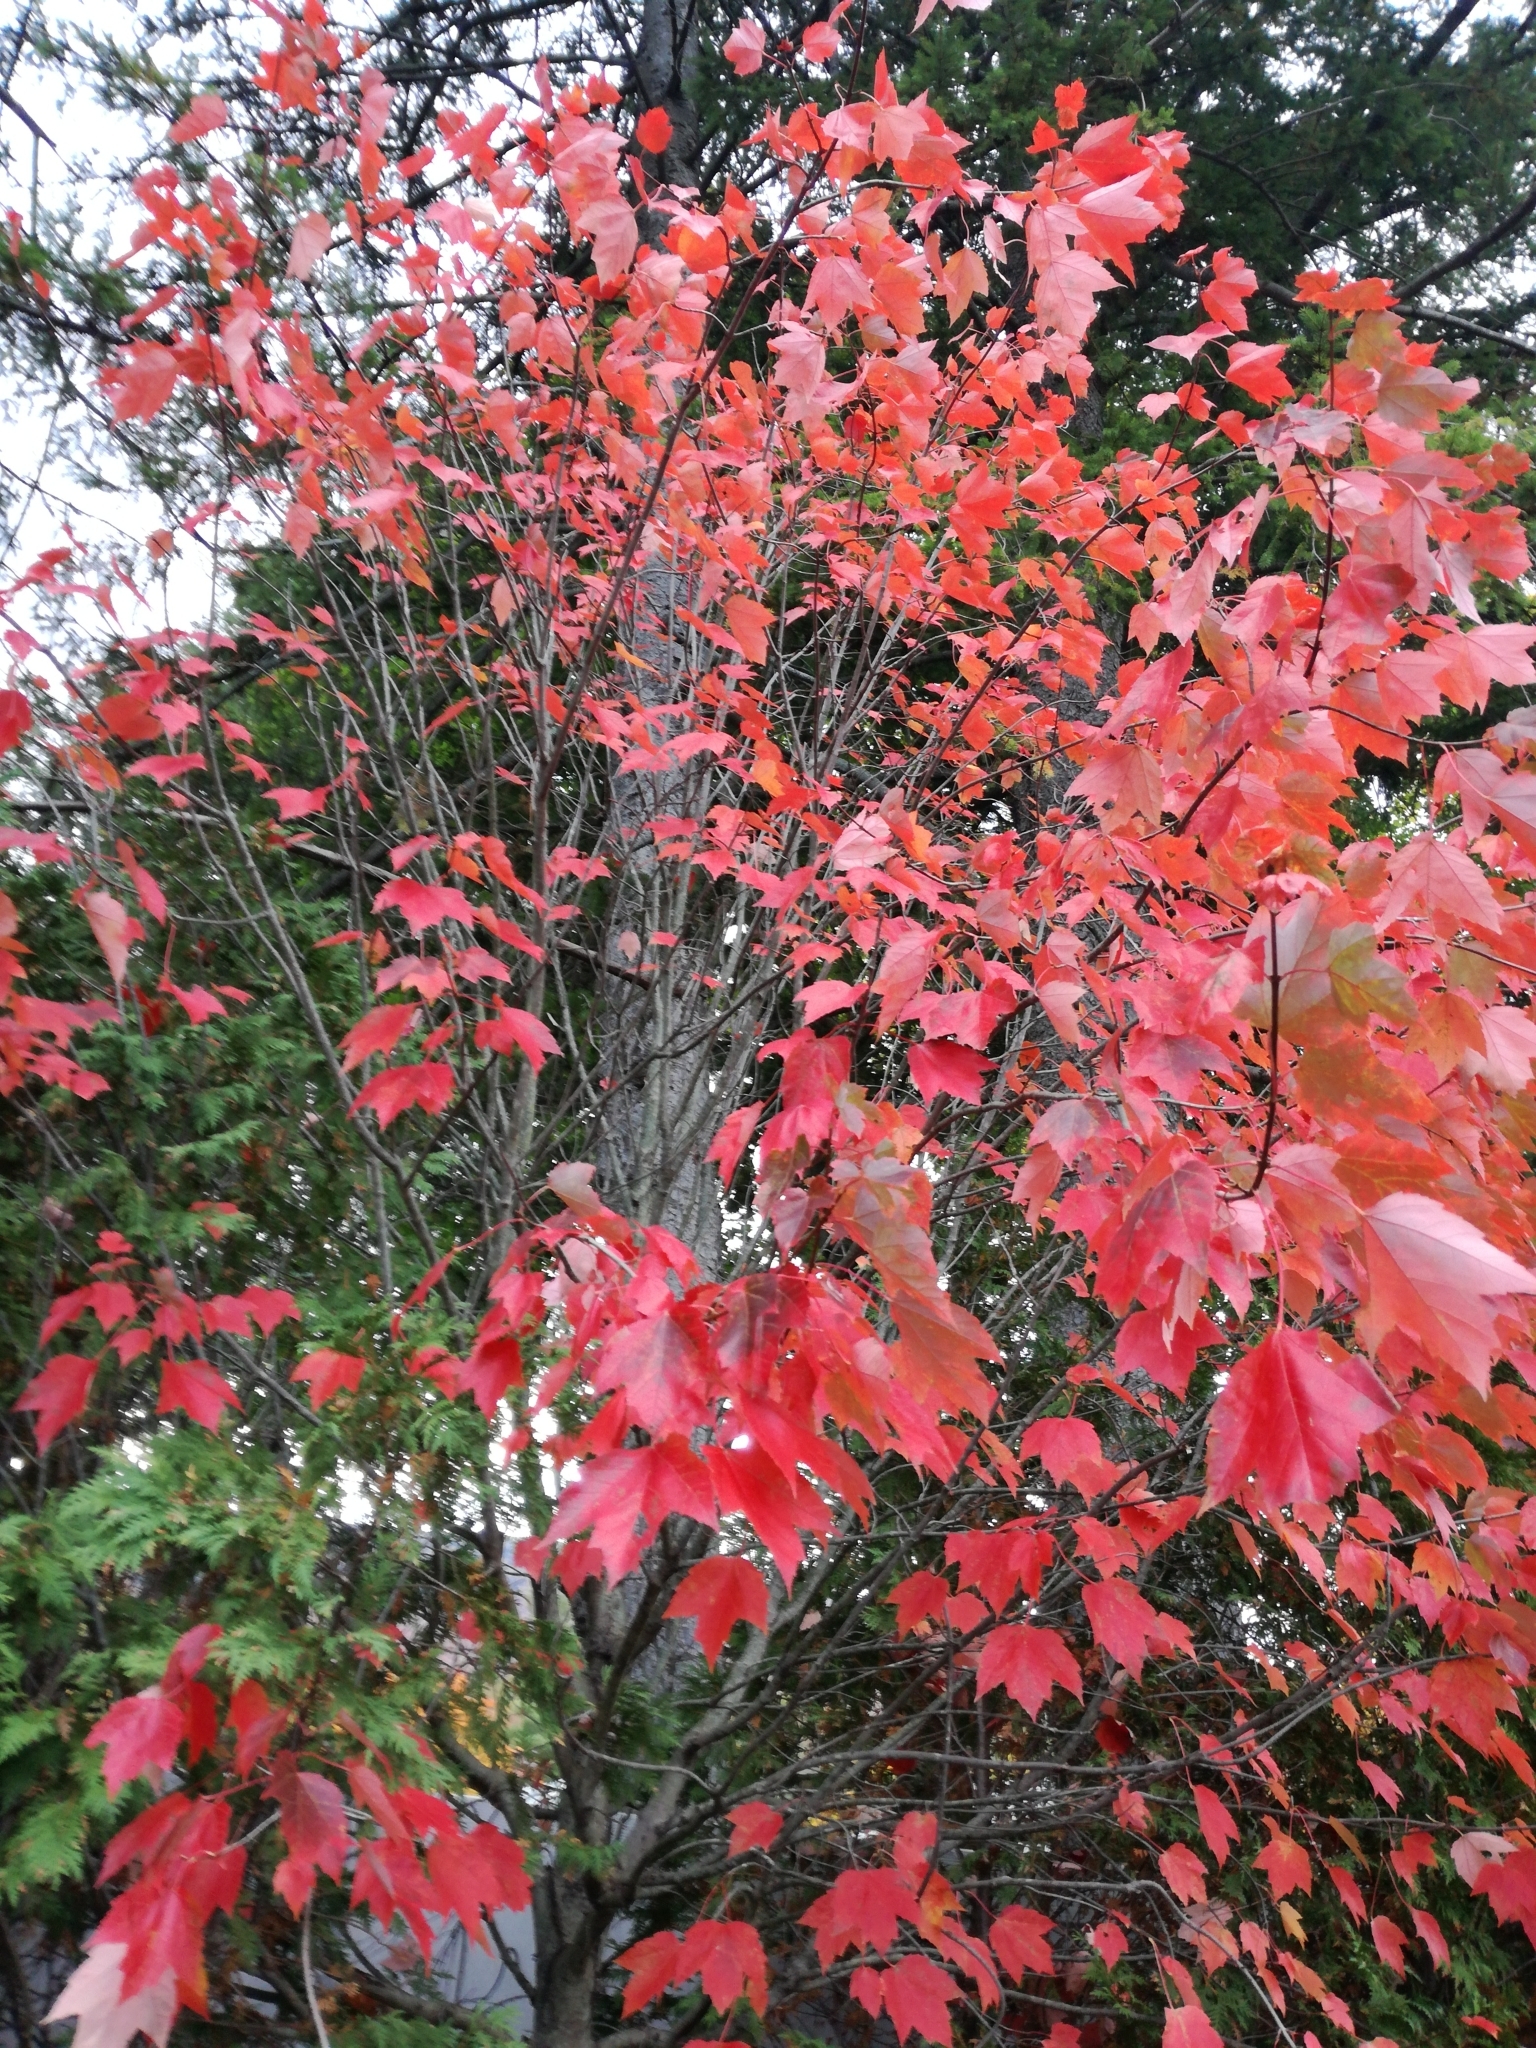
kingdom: Plantae
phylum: Tracheophyta
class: Magnoliopsida
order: Sapindales
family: Sapindaceae
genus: Acer
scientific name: Acer rubrum
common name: Red maple
